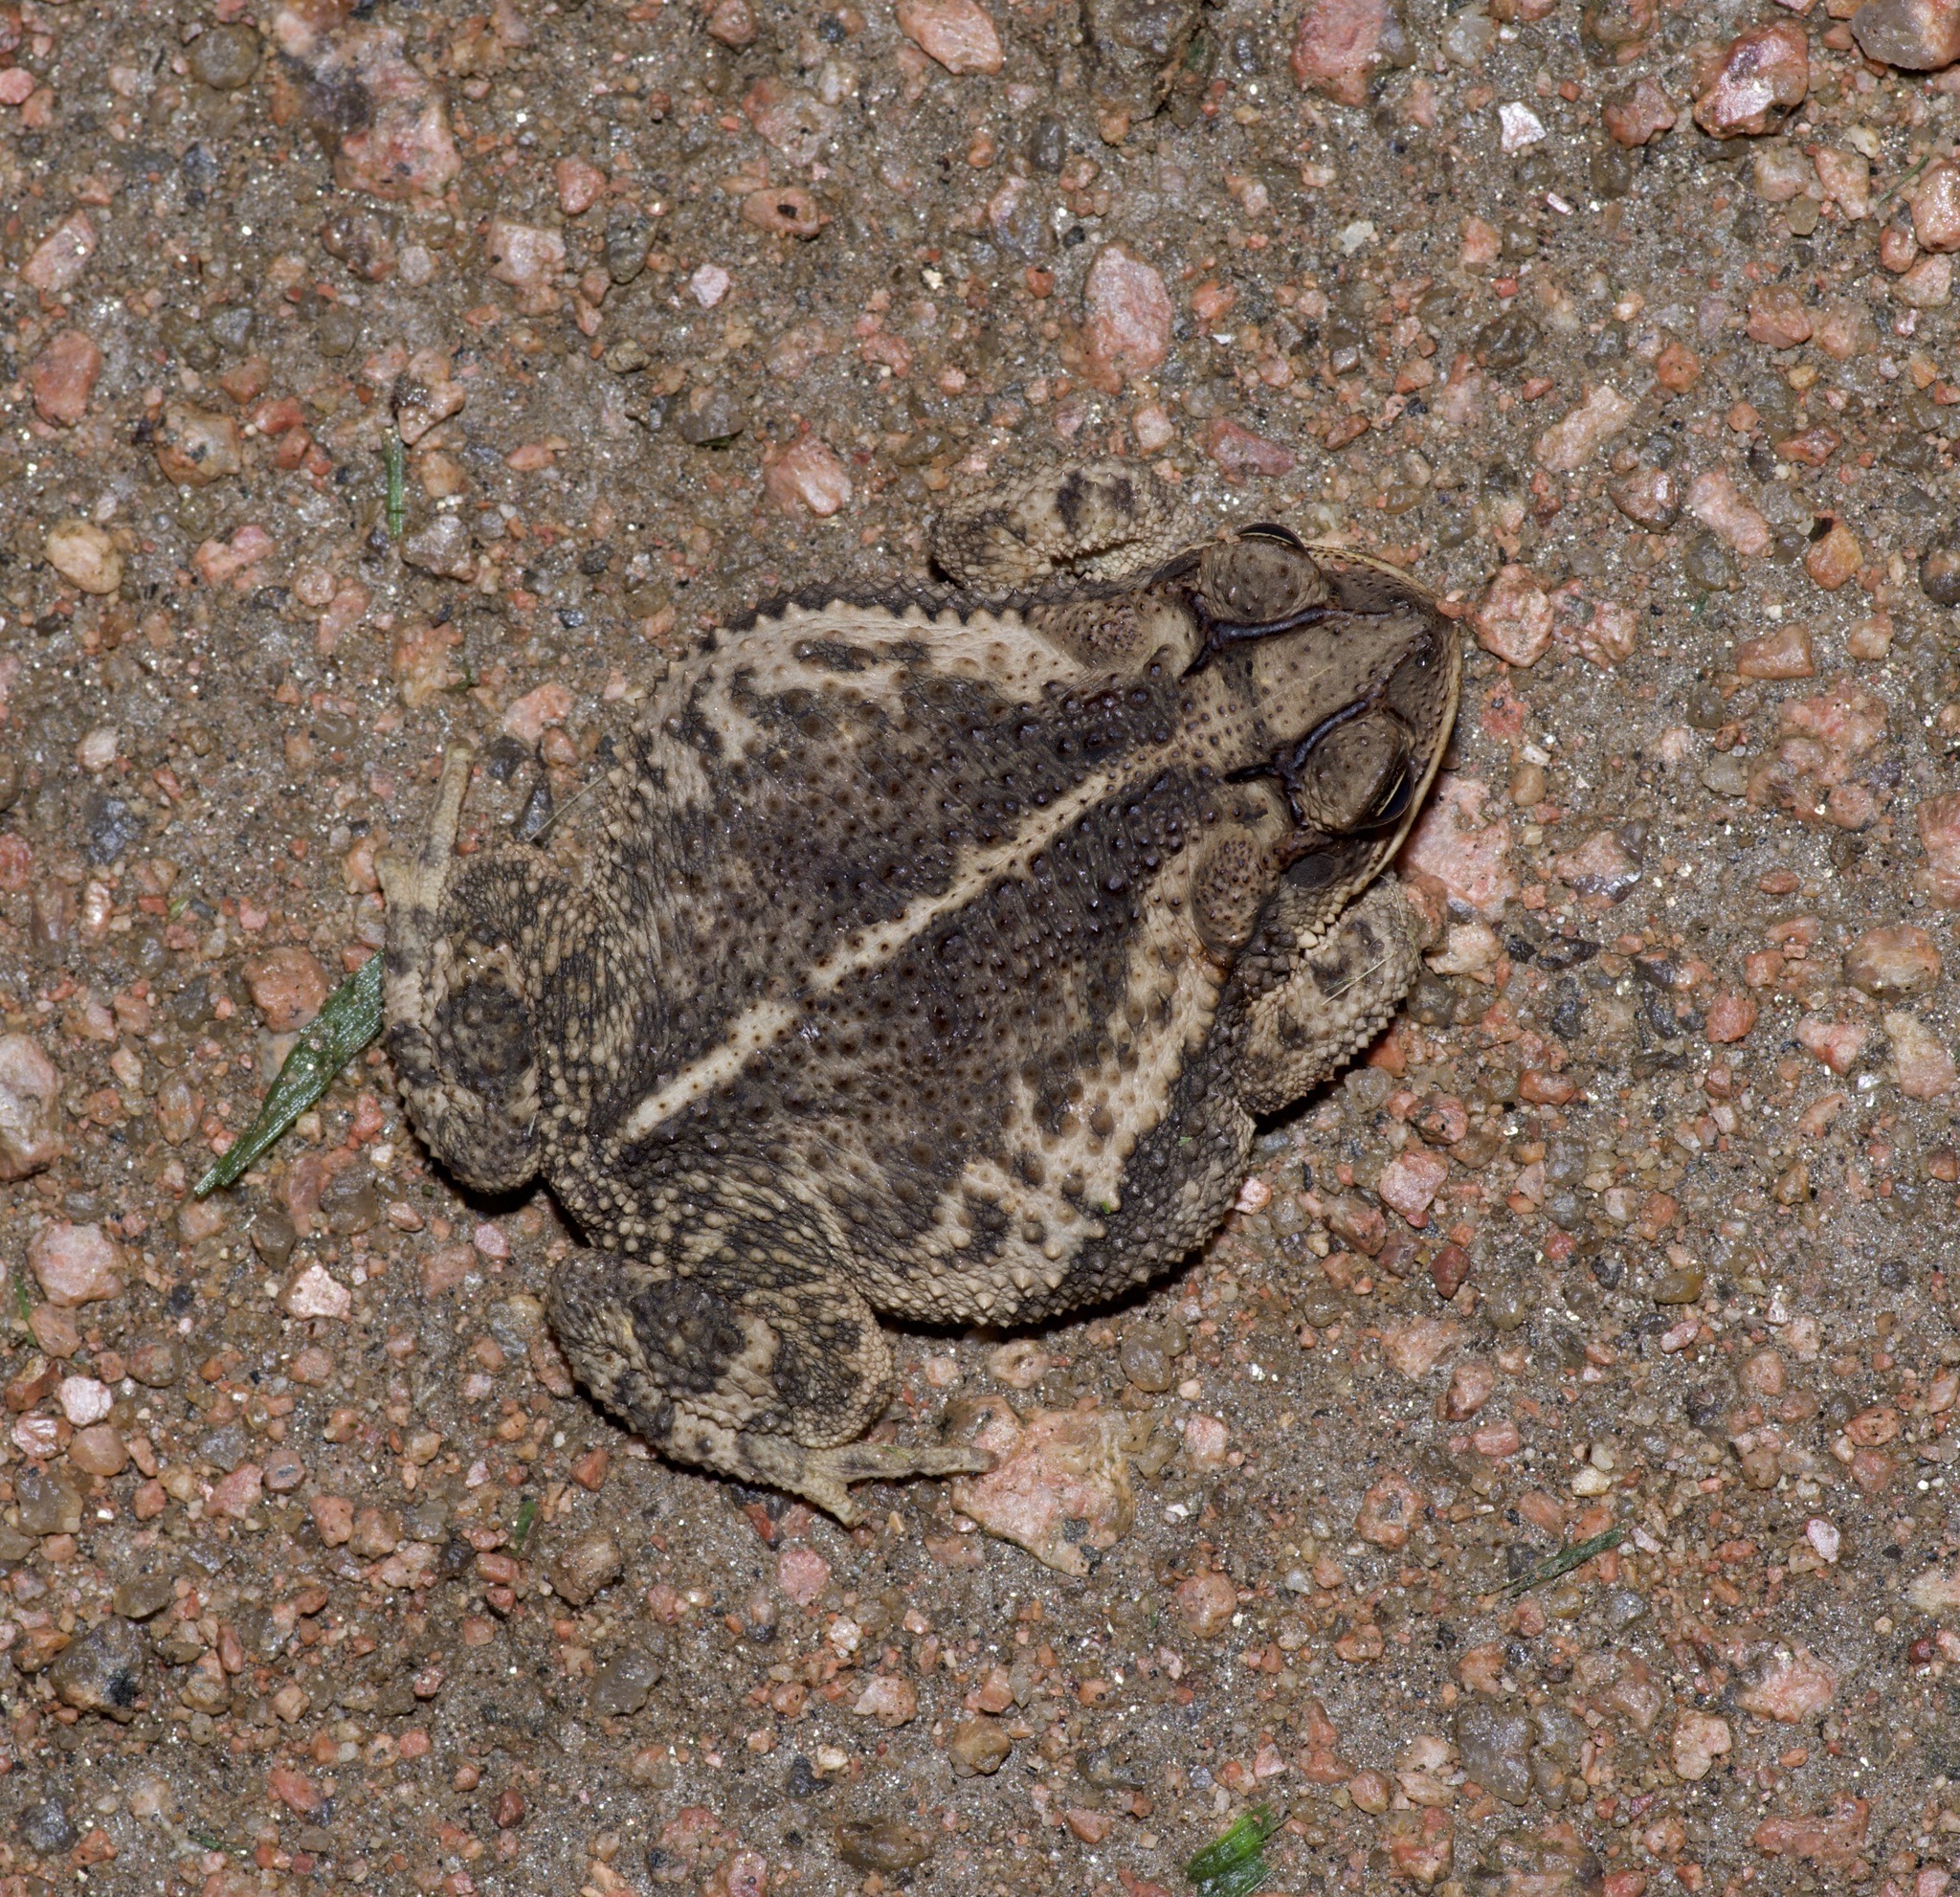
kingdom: Animalia
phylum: Chordata
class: Amphibia
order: Anura
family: Bufonidae
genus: Incilius
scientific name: Incilius nebulifer
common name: Gulf coast toad
